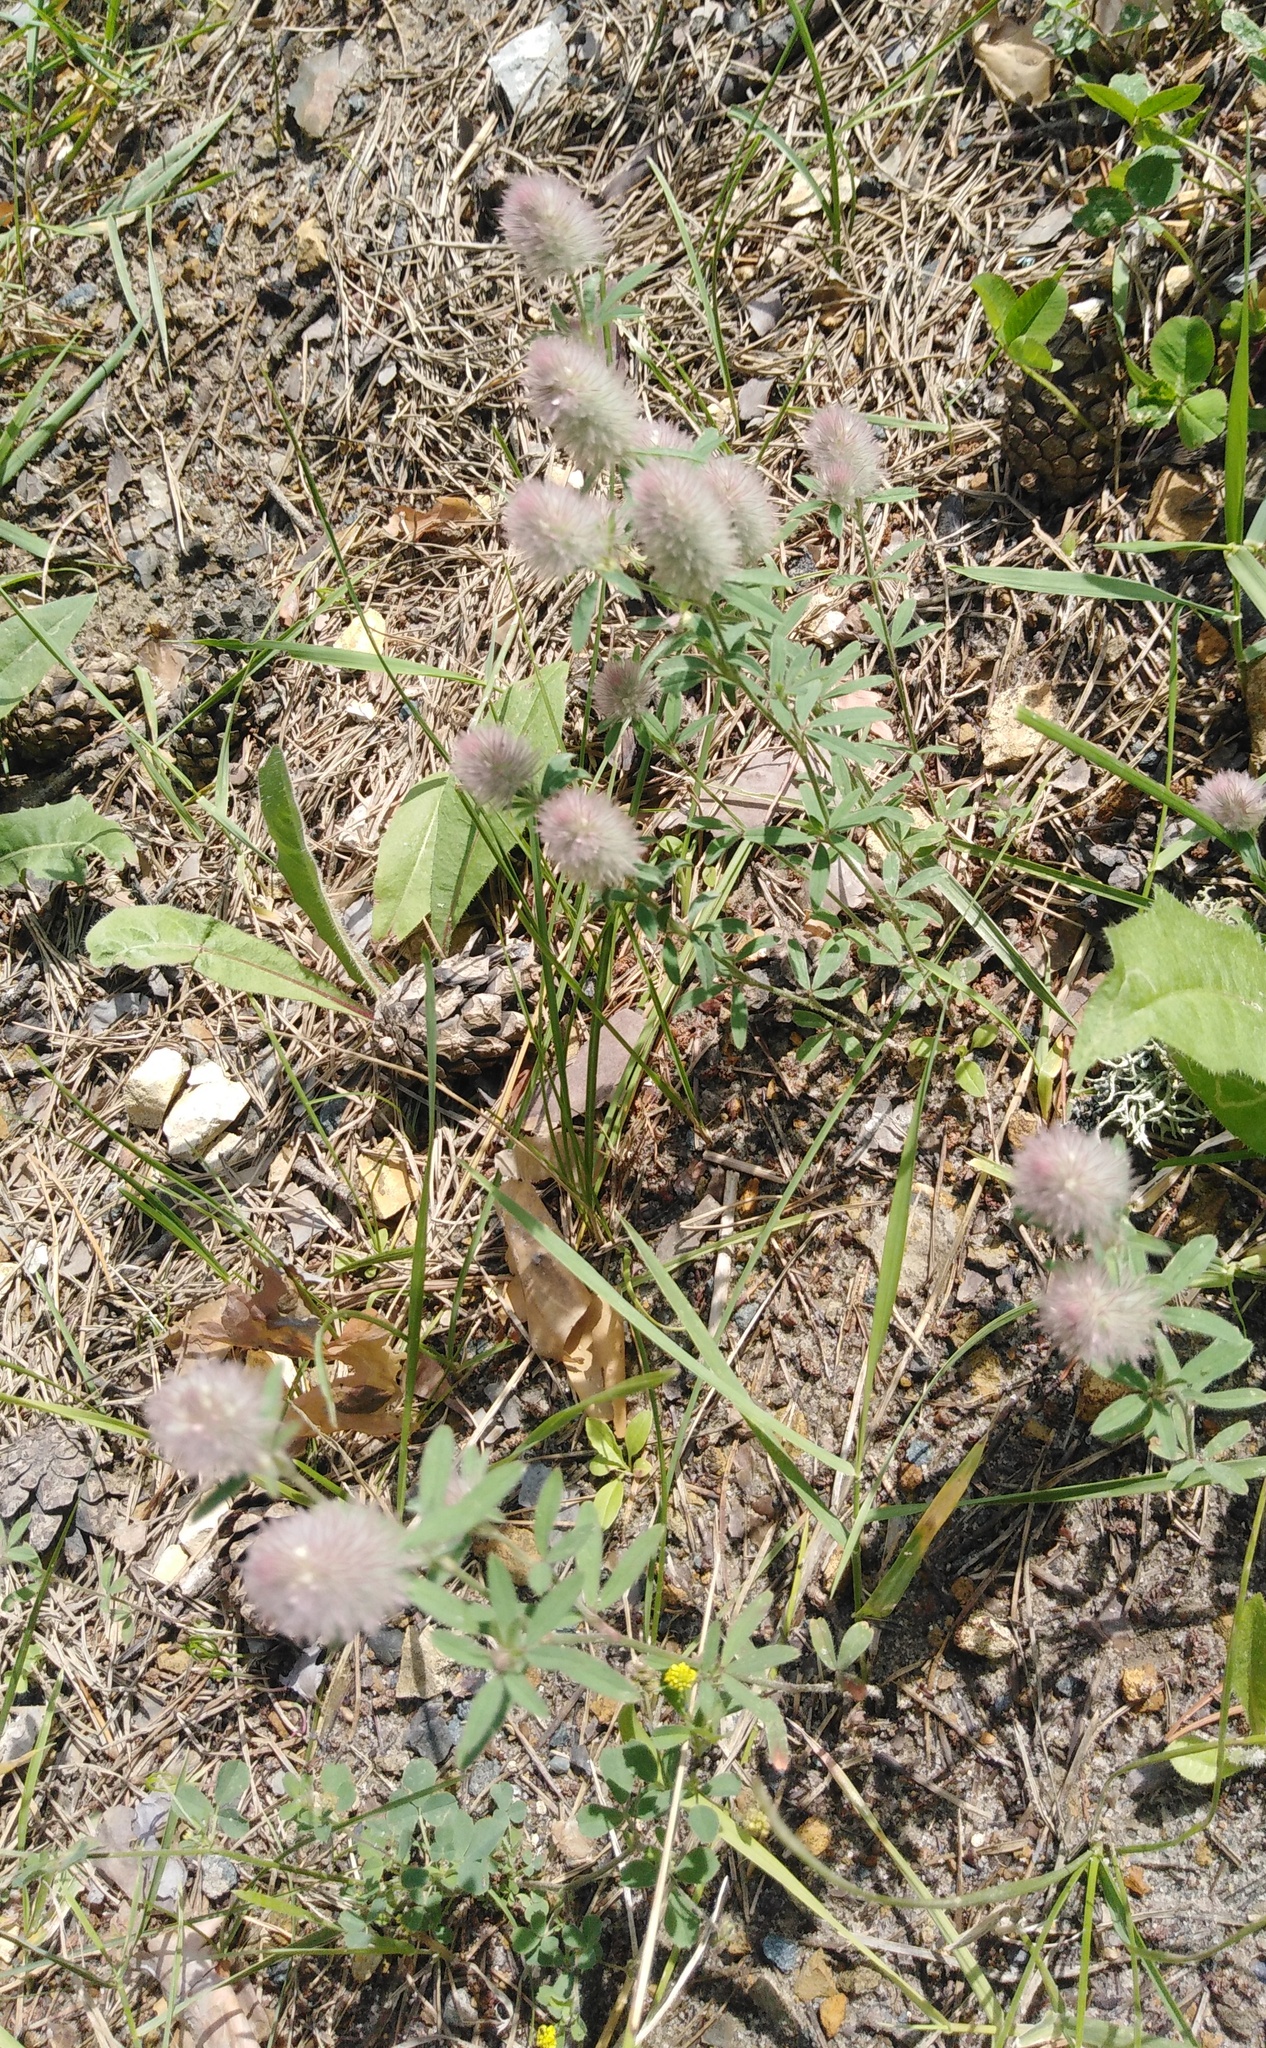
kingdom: Plantae
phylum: Tracheophyta
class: Magnoliopsida
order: Fabales
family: Fabaceae
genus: Trifolium
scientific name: Trifolium arvense
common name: Hare's-foot clover
